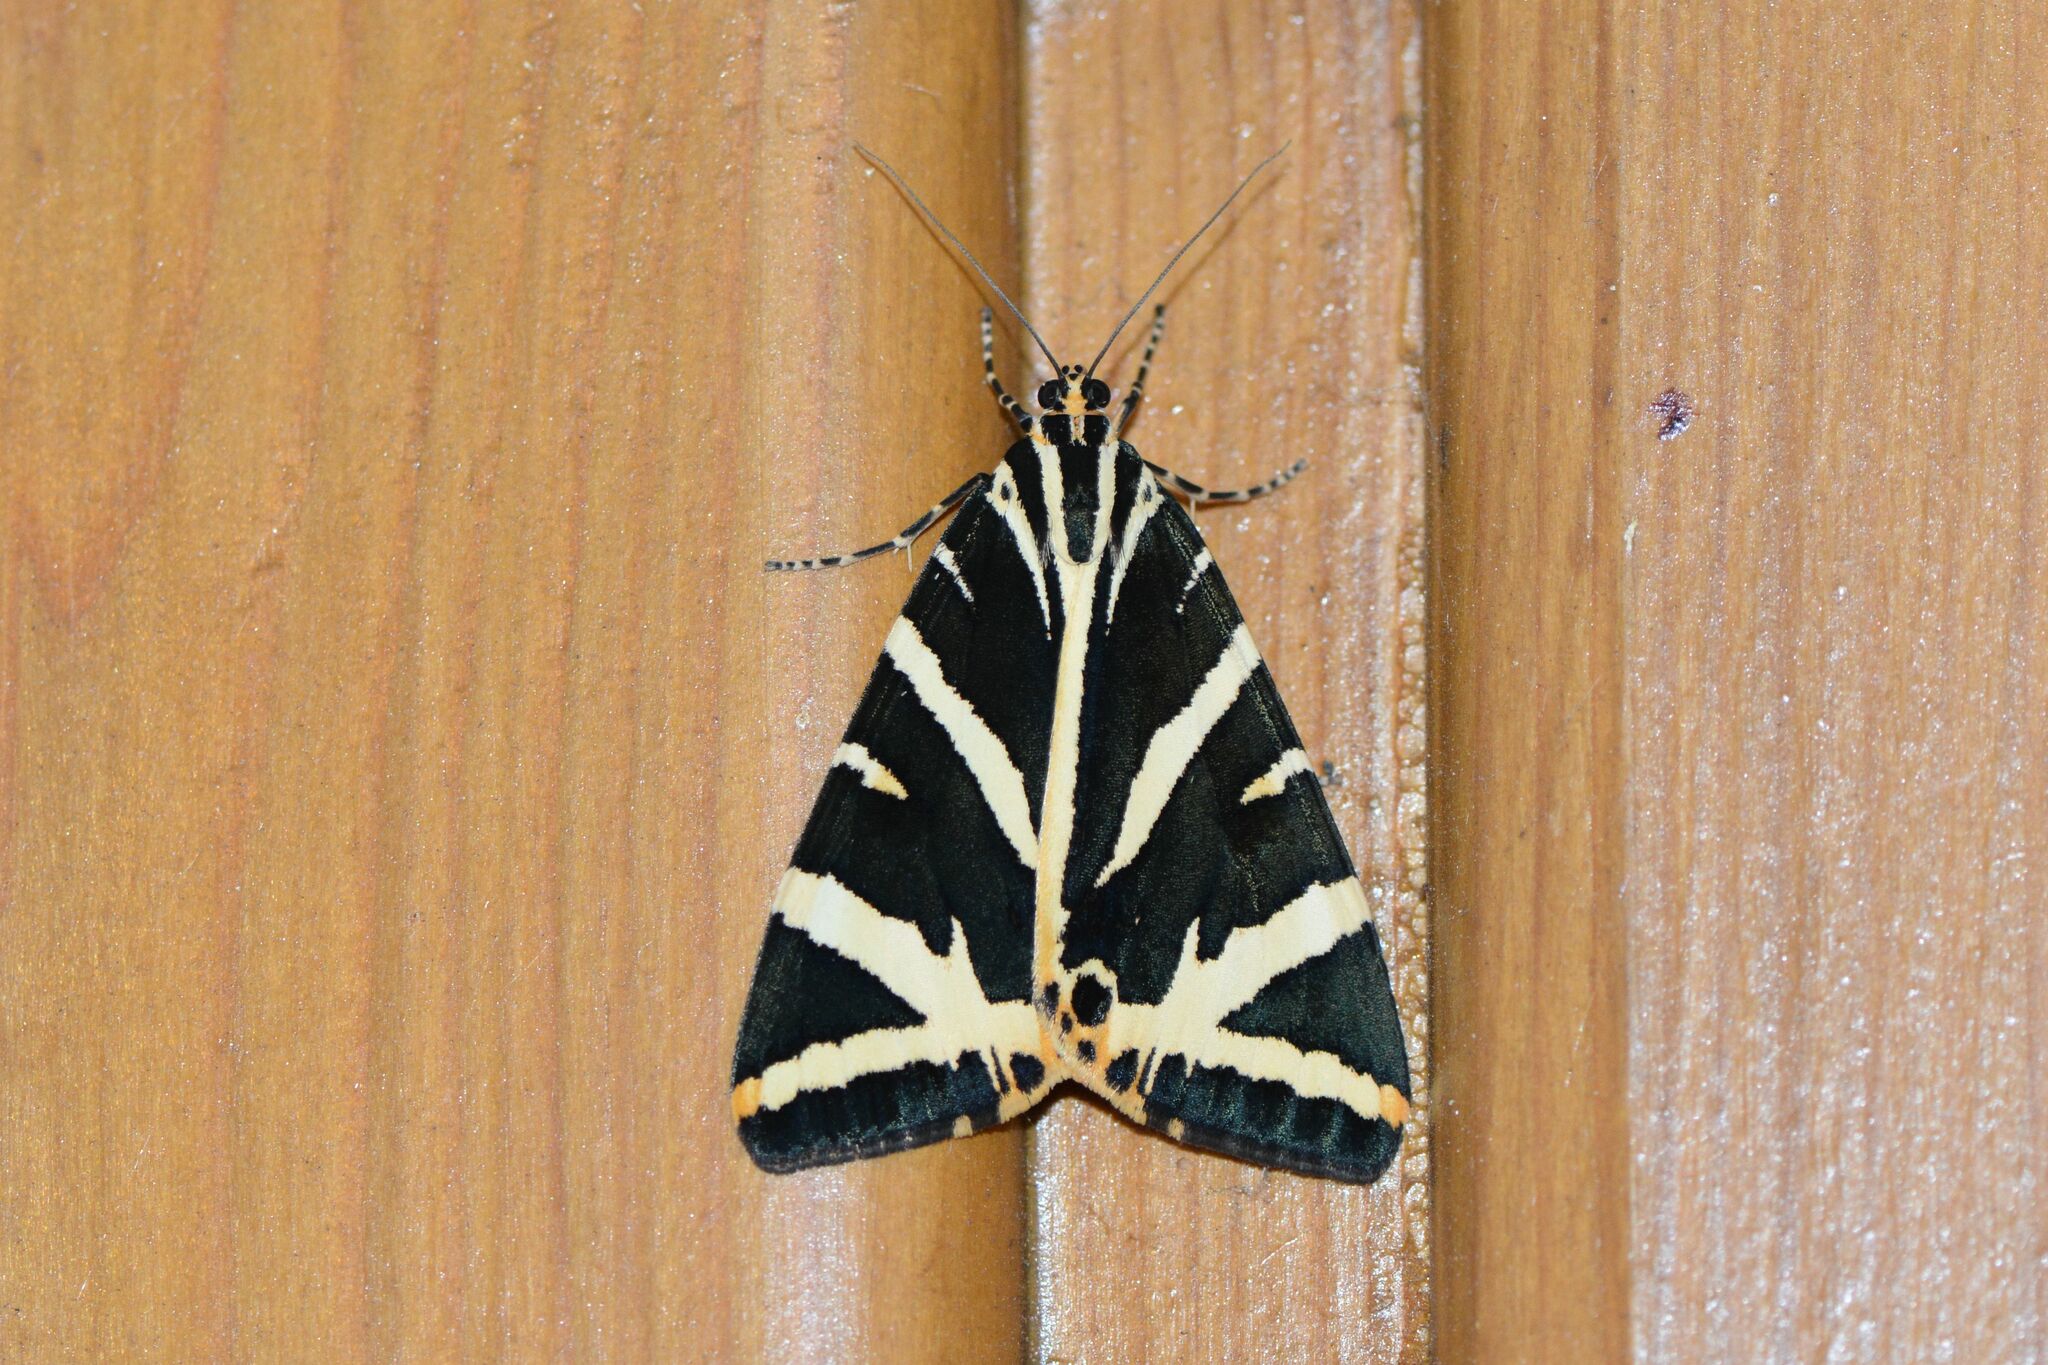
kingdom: Animalia
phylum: Arthropoda
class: Insecta
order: Lepidoptera
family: Erebidae
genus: Euplagia
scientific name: Euplagia quadripunctaria
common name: Jersey tiger
